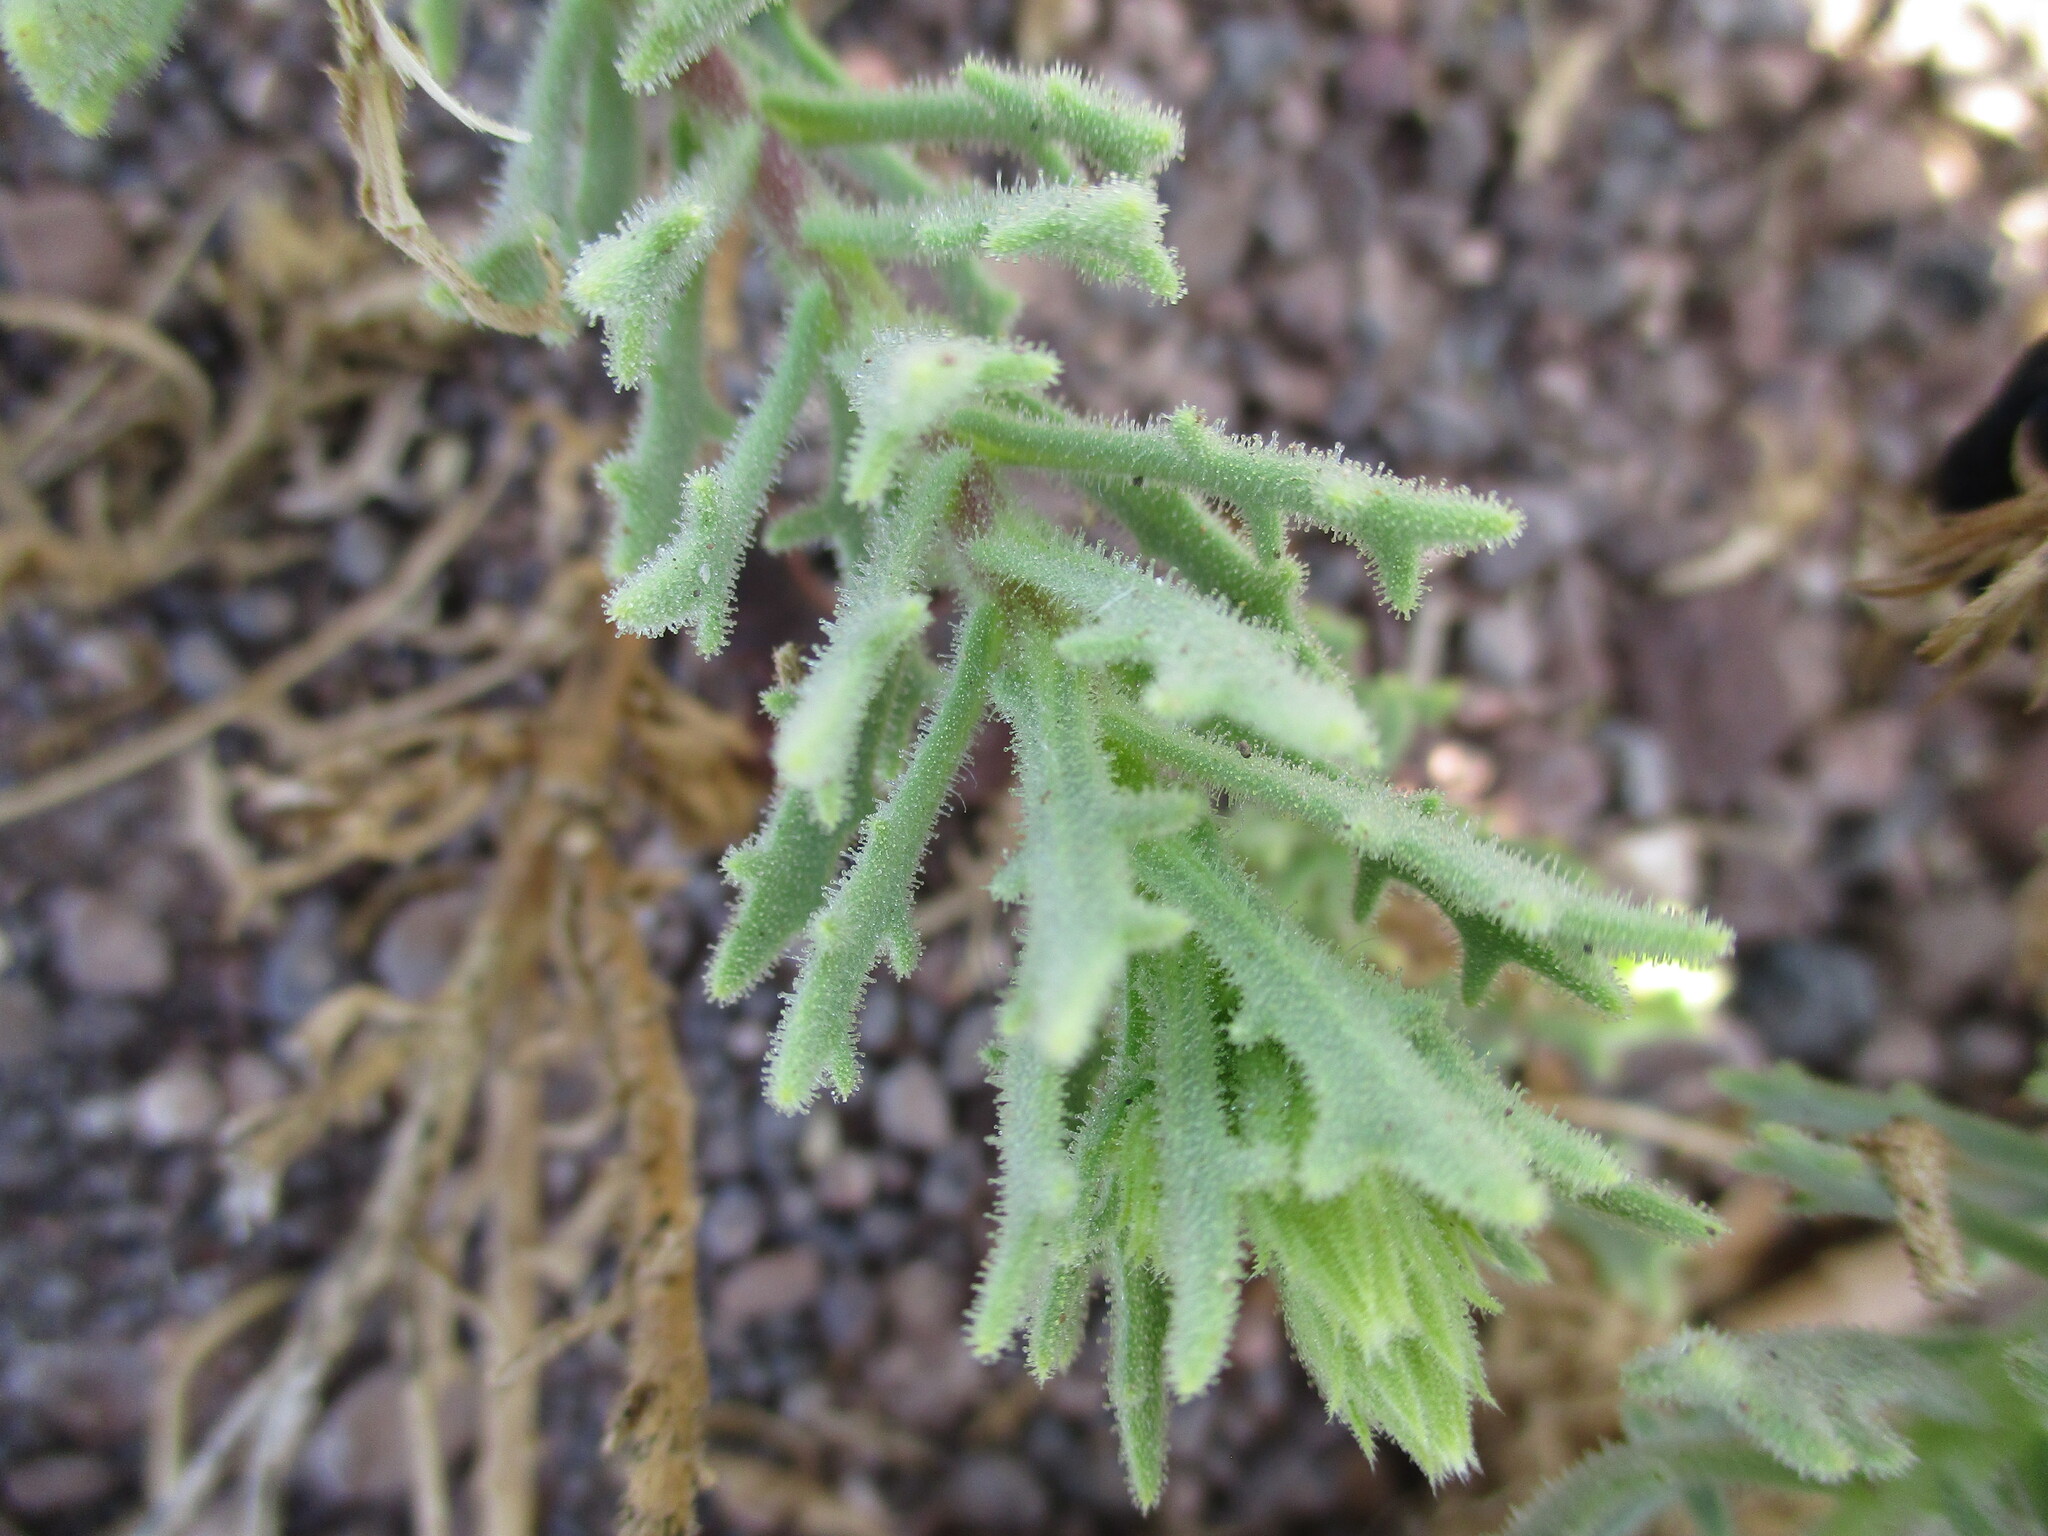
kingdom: Plantae
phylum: Tracheophyta
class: Magnoliopsida
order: Asterales
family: Asteraceae
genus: Osteospermum
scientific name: Osteospermum microcarpum
